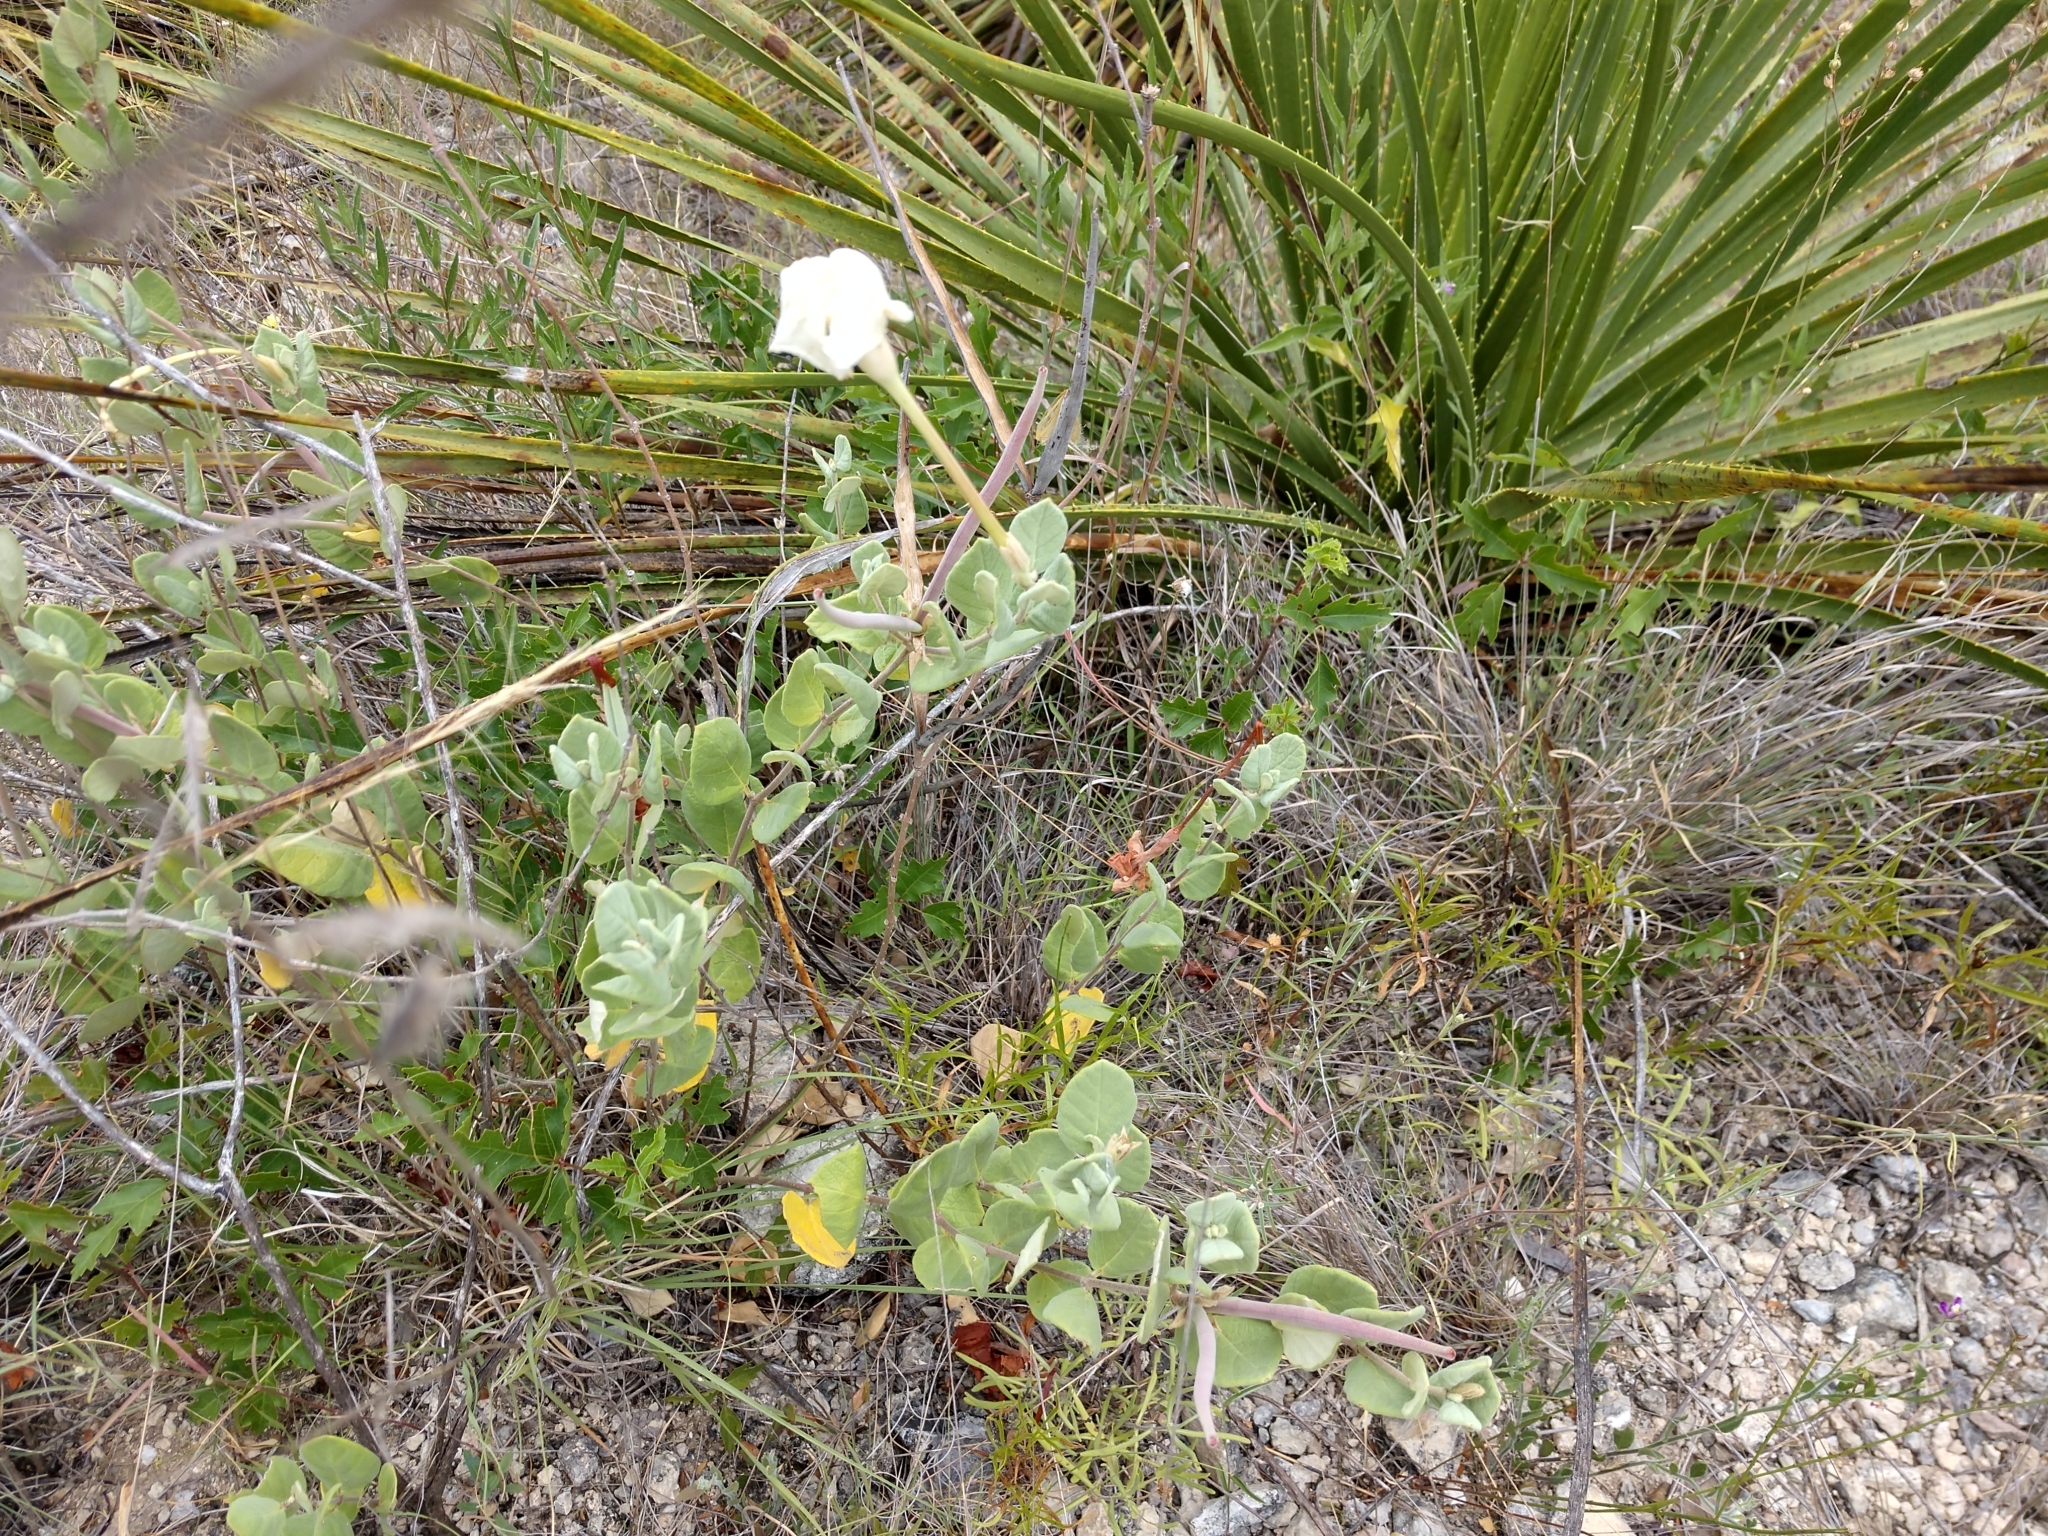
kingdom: Plantae
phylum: Tracheophyta
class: Magnoliopsida
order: Gentianales
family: Apocynaceae
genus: Mandevilla
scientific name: Mandevilla macrosiphon
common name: Plateau rocktrumpet
